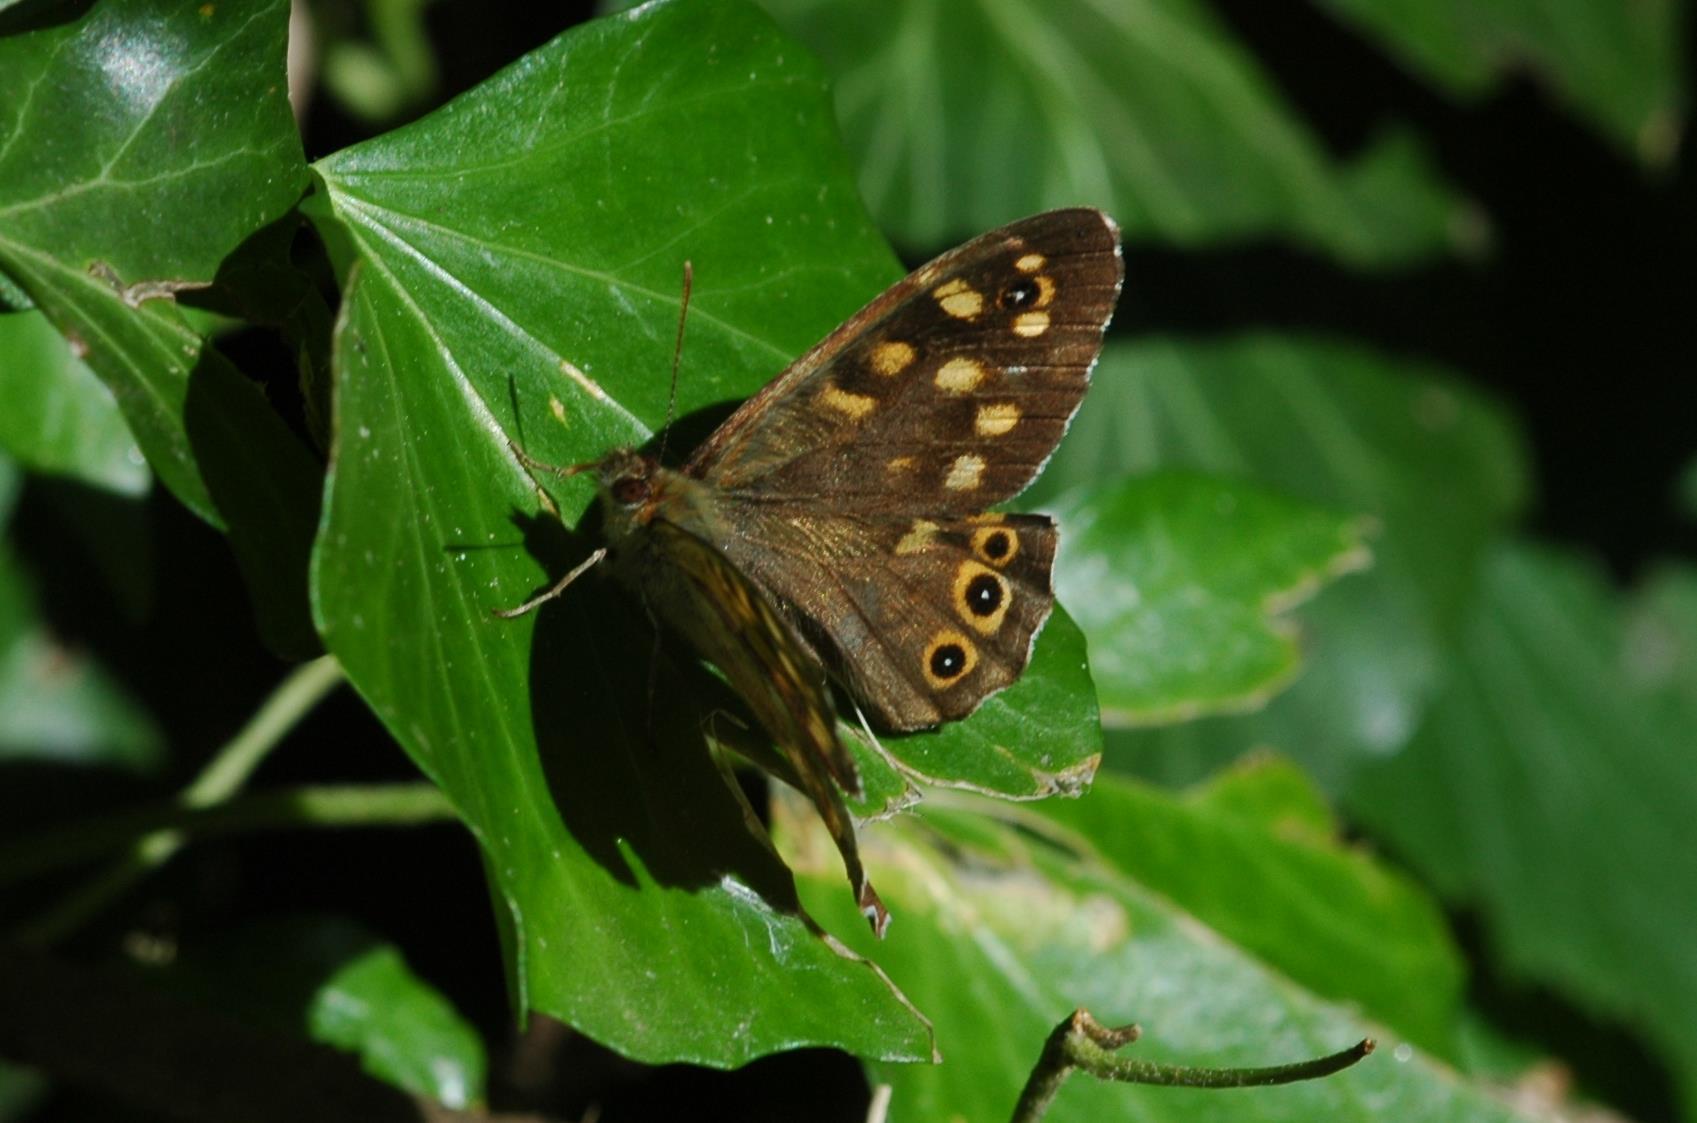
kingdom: Animalia
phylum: Arthropoda
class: Insecta
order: Lepidoptera
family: Nymphalidae
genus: Pararge
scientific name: Pararge aegeria
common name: Speckled wood
